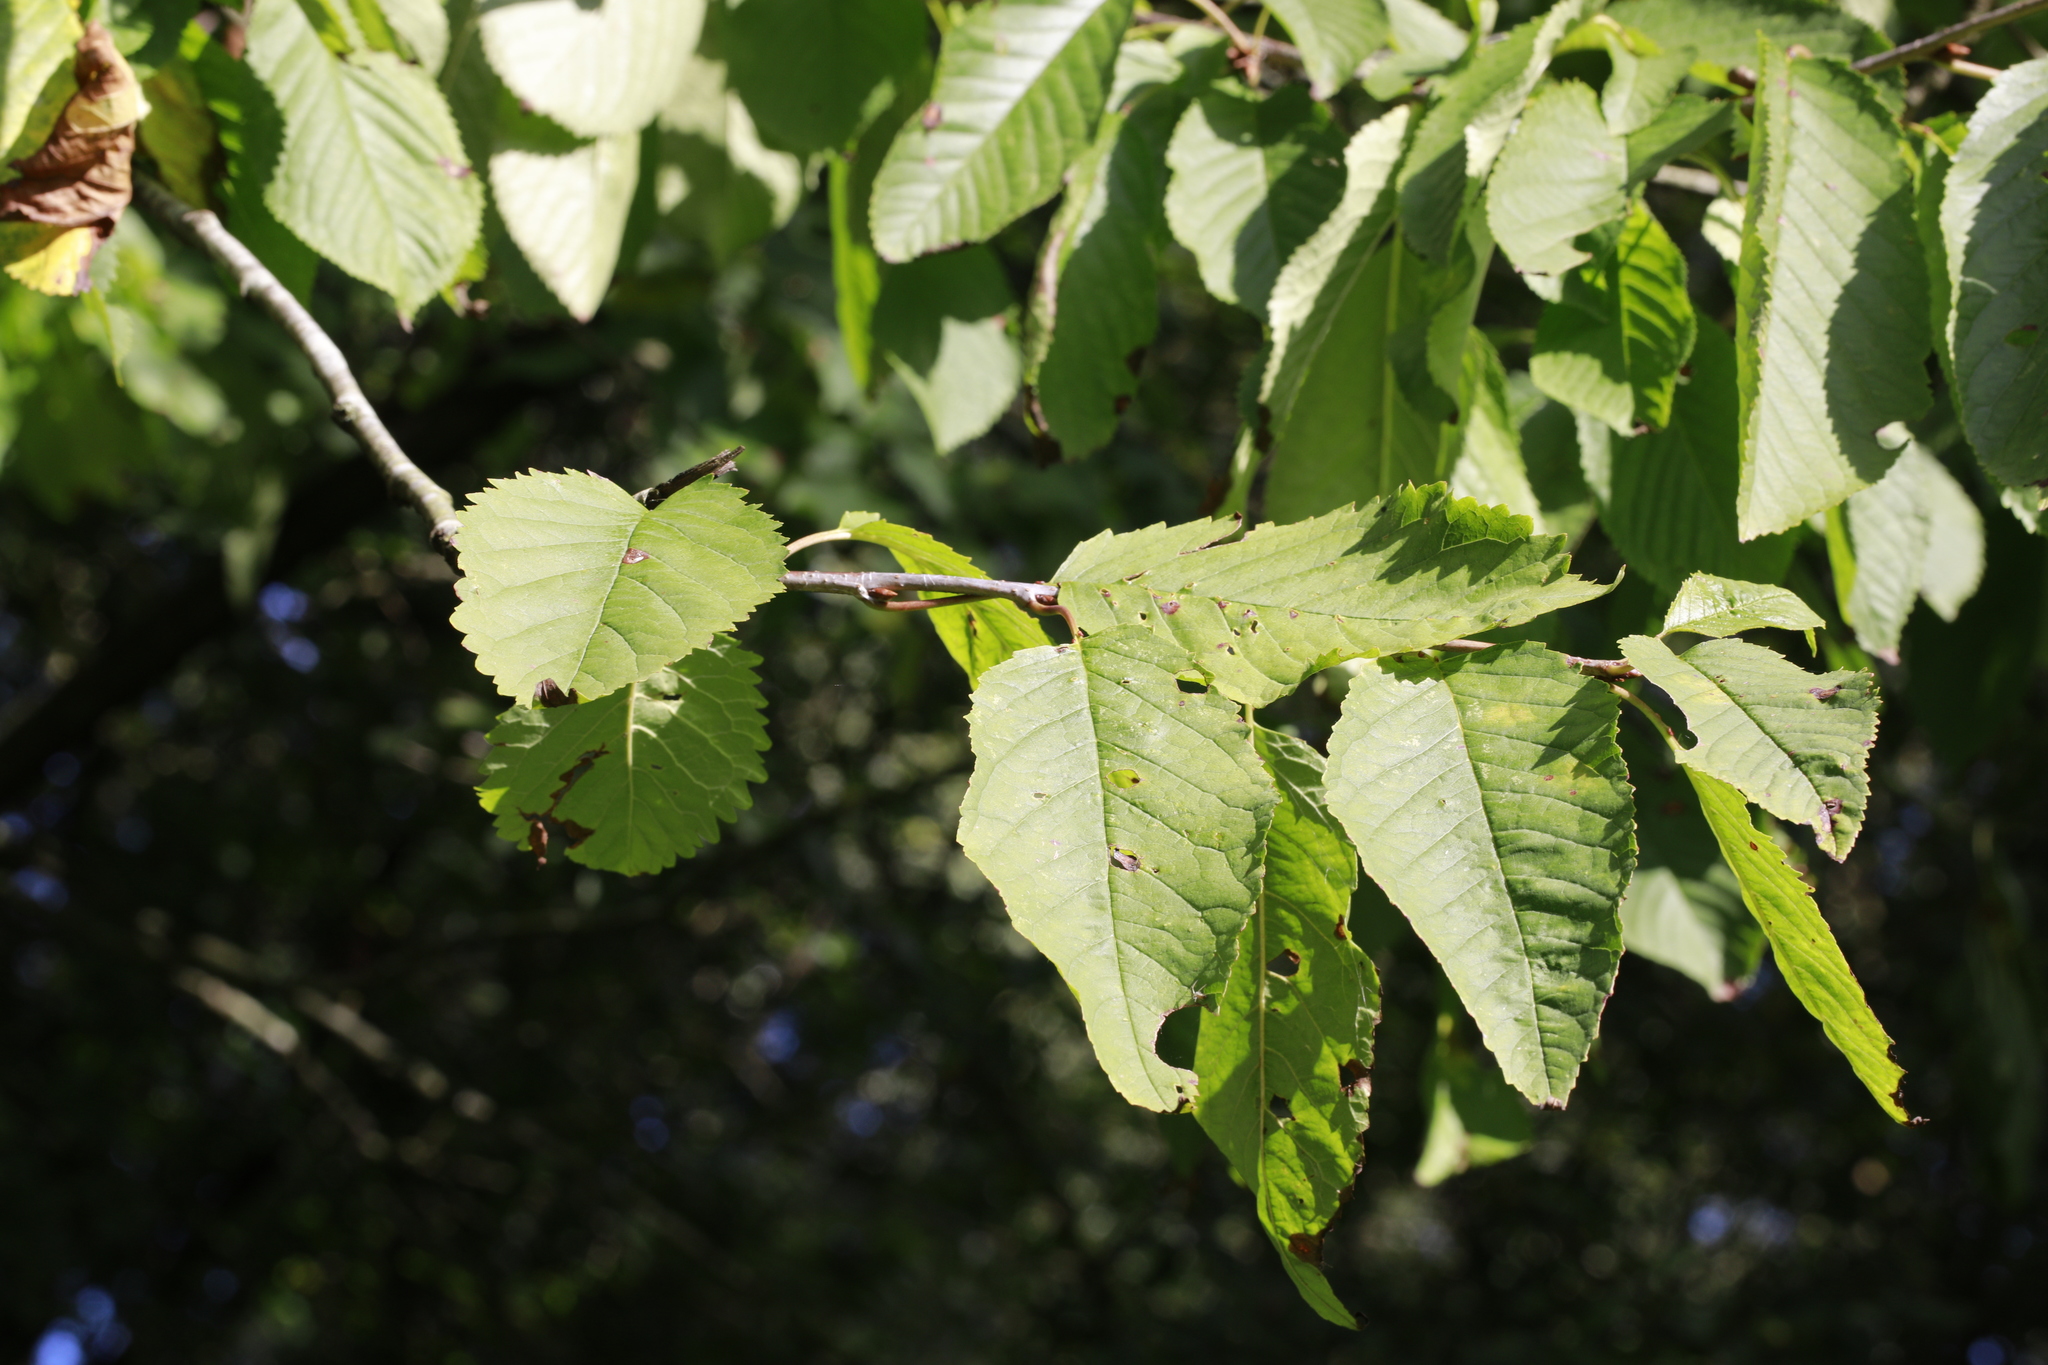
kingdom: Plantae
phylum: Tracheophyta
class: Magnoliopsida
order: Rosales
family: Rosaceae
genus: Prunus
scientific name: Prunus avium
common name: Sweet cherry
